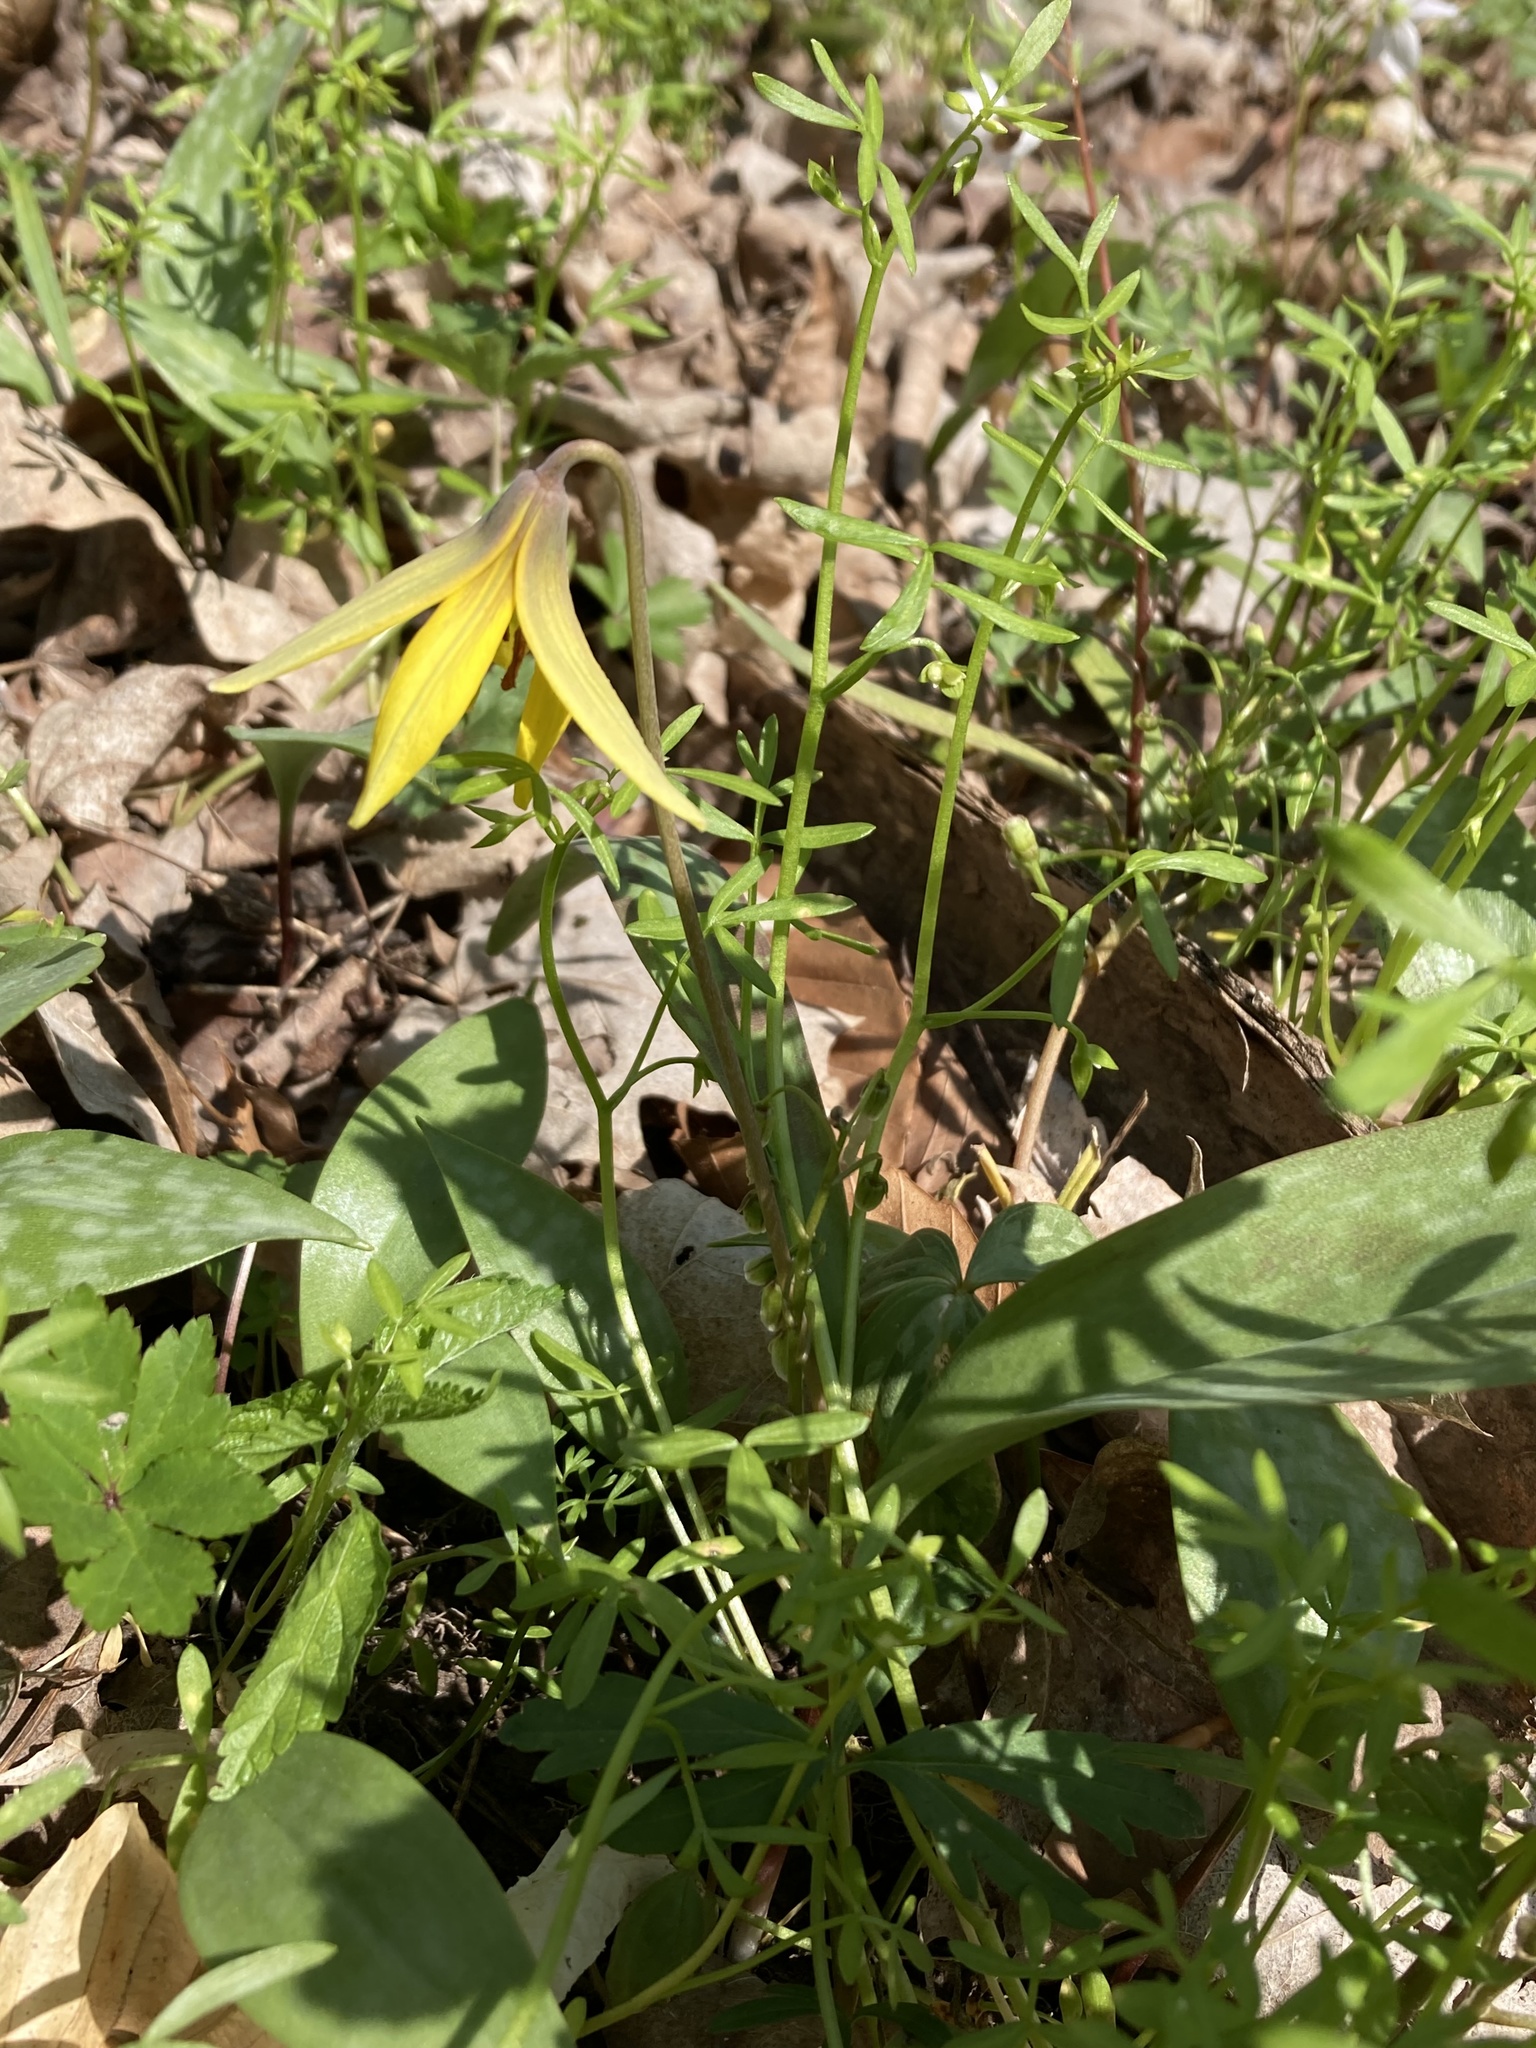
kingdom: Plantae
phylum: Tracheophyta
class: Liliopsida
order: Liliales
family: Liliaceae
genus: Erythronium
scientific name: Erythronium americanum
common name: Yellow adder's-tongue
